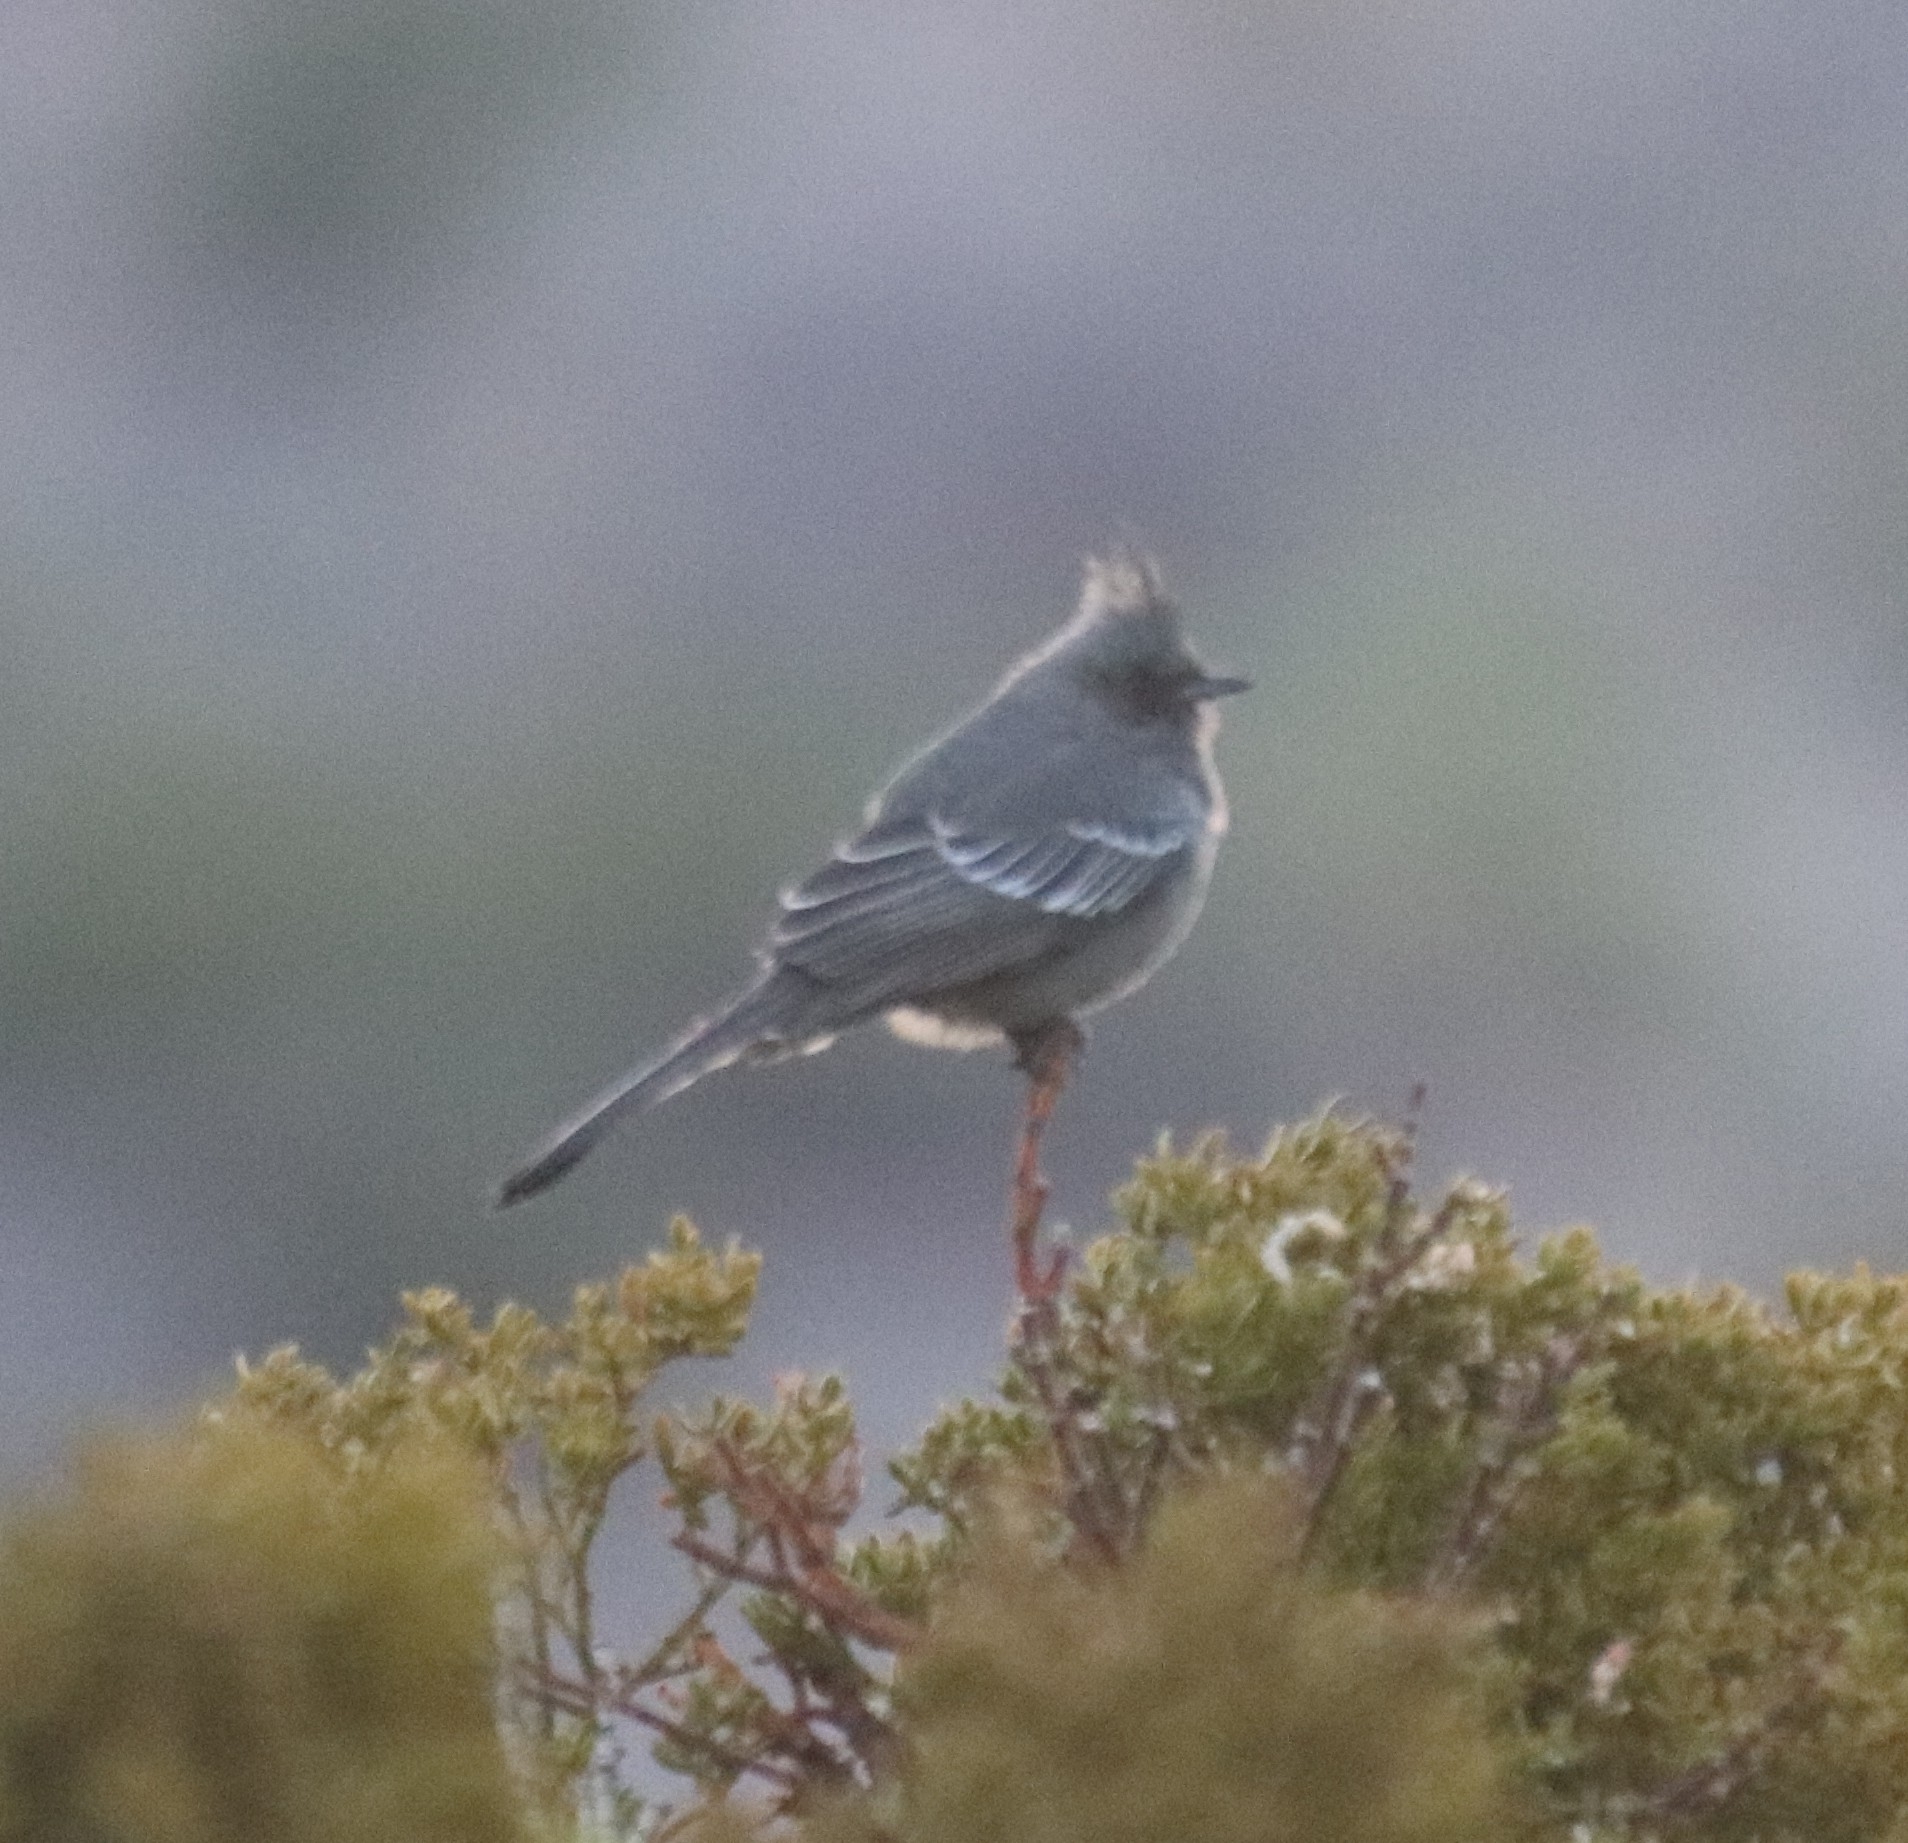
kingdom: Animalia
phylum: Chordata
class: Aves
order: Passeriformes
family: Ptilogonatidae
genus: Phainopepla
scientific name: Phainopepla nitens
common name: Phainopepla
